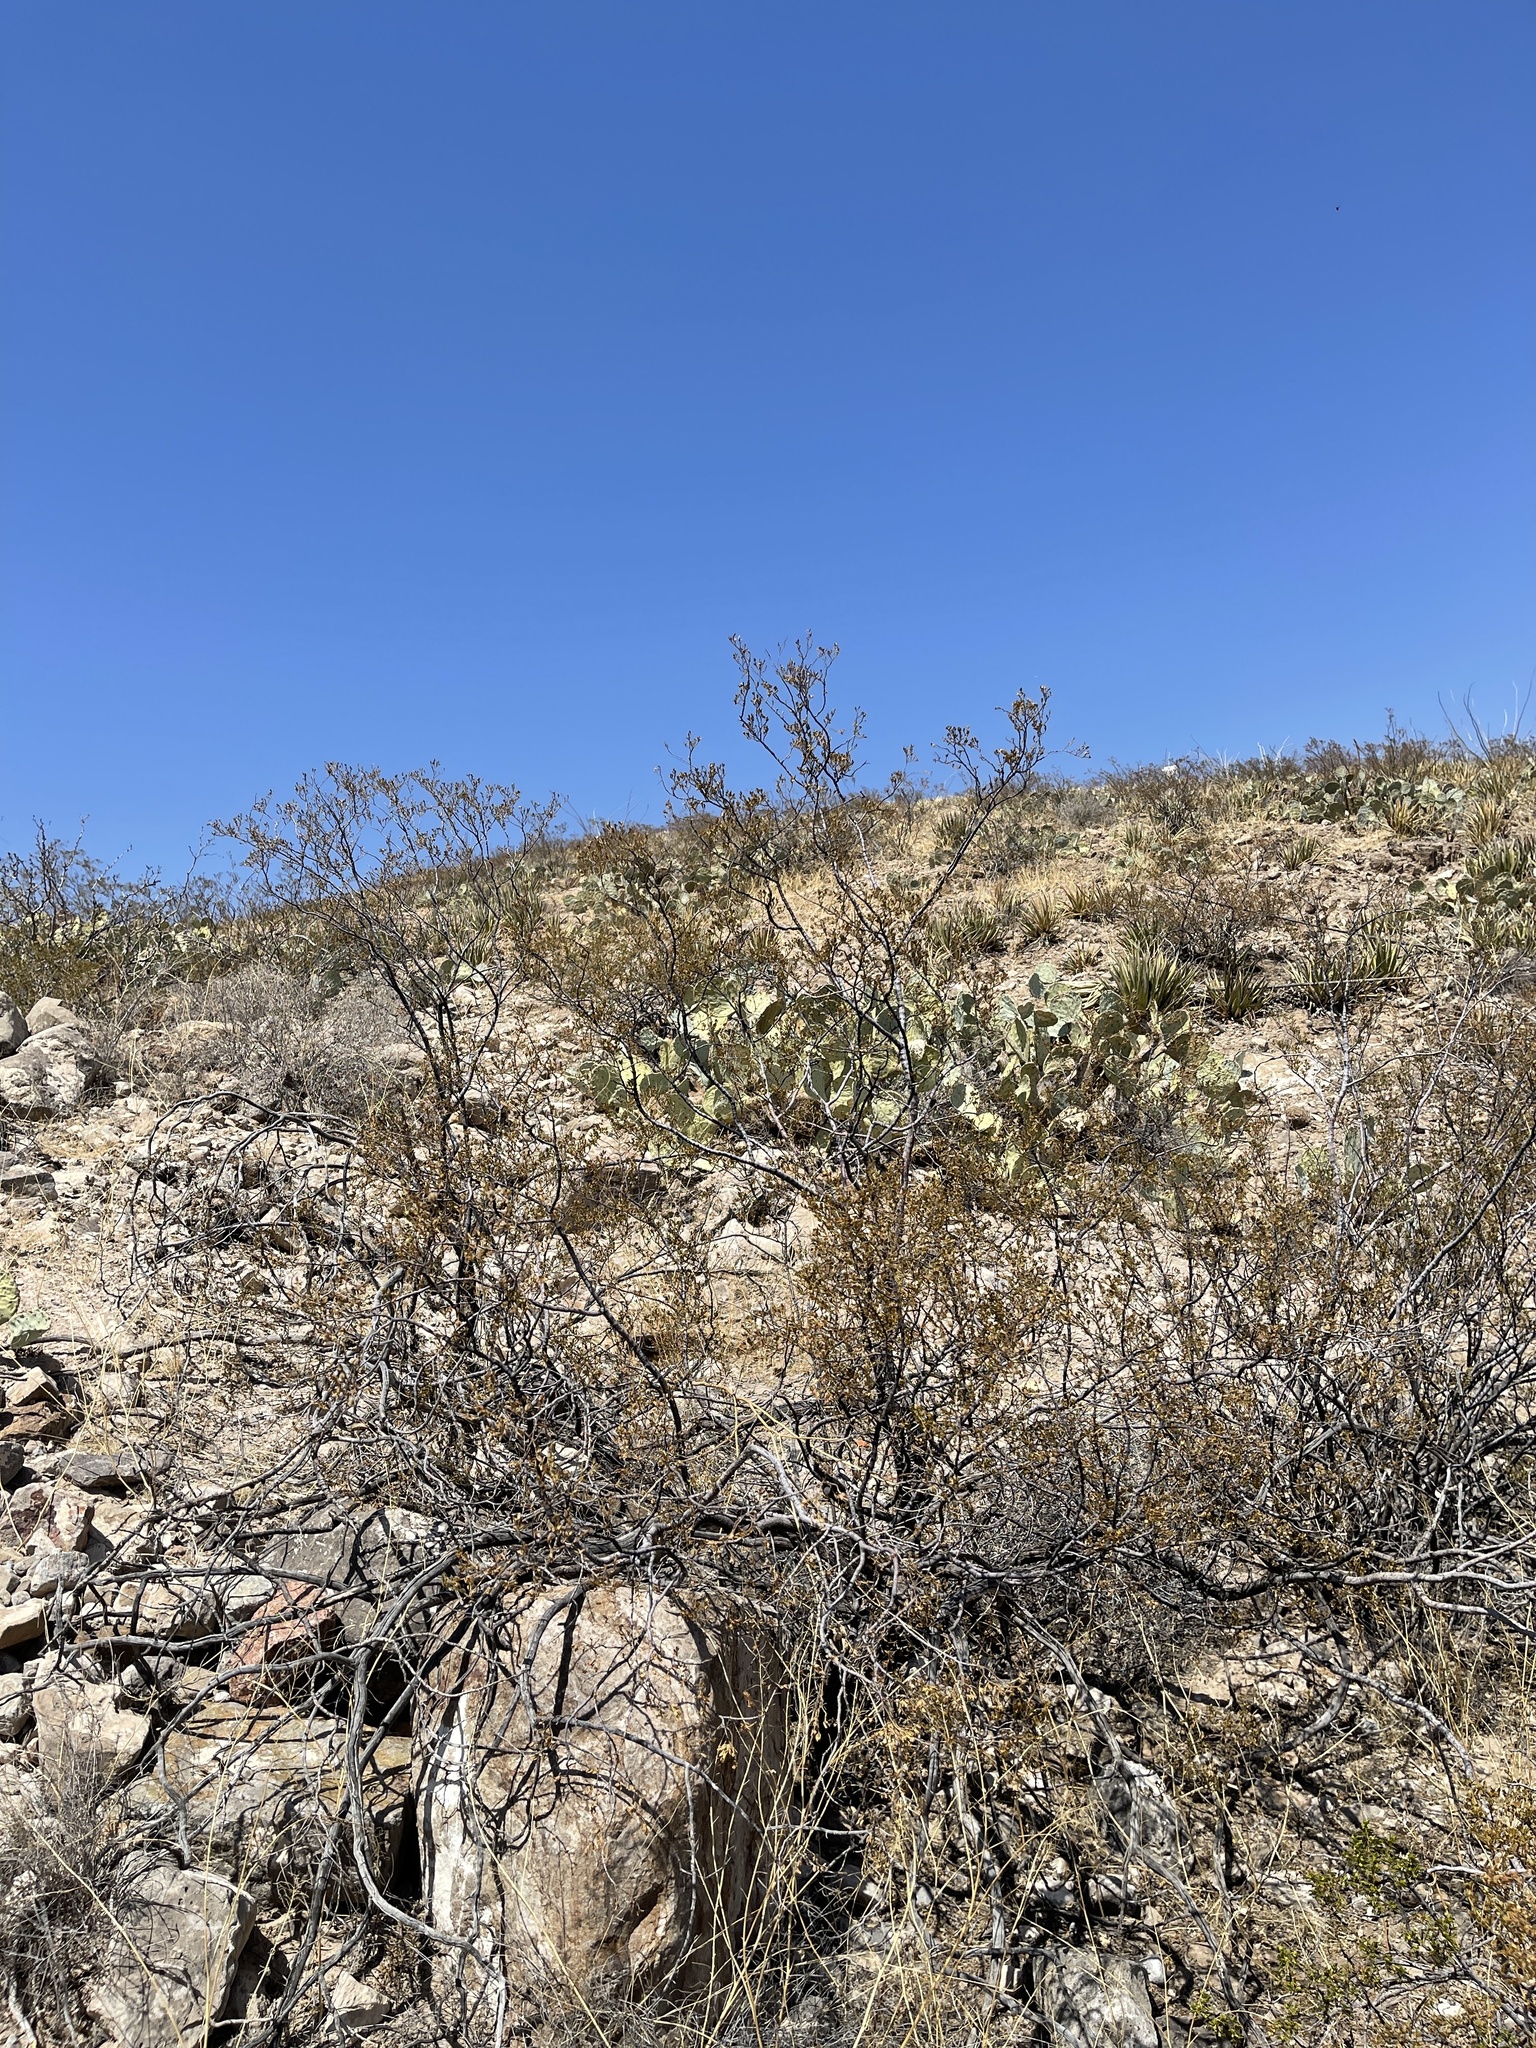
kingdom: Plantae
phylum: Tracheophyta
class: Magnoliopsida
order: Zygophyllales
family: Zygophyllaceae
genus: Larrea
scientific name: Larrea tridentata
